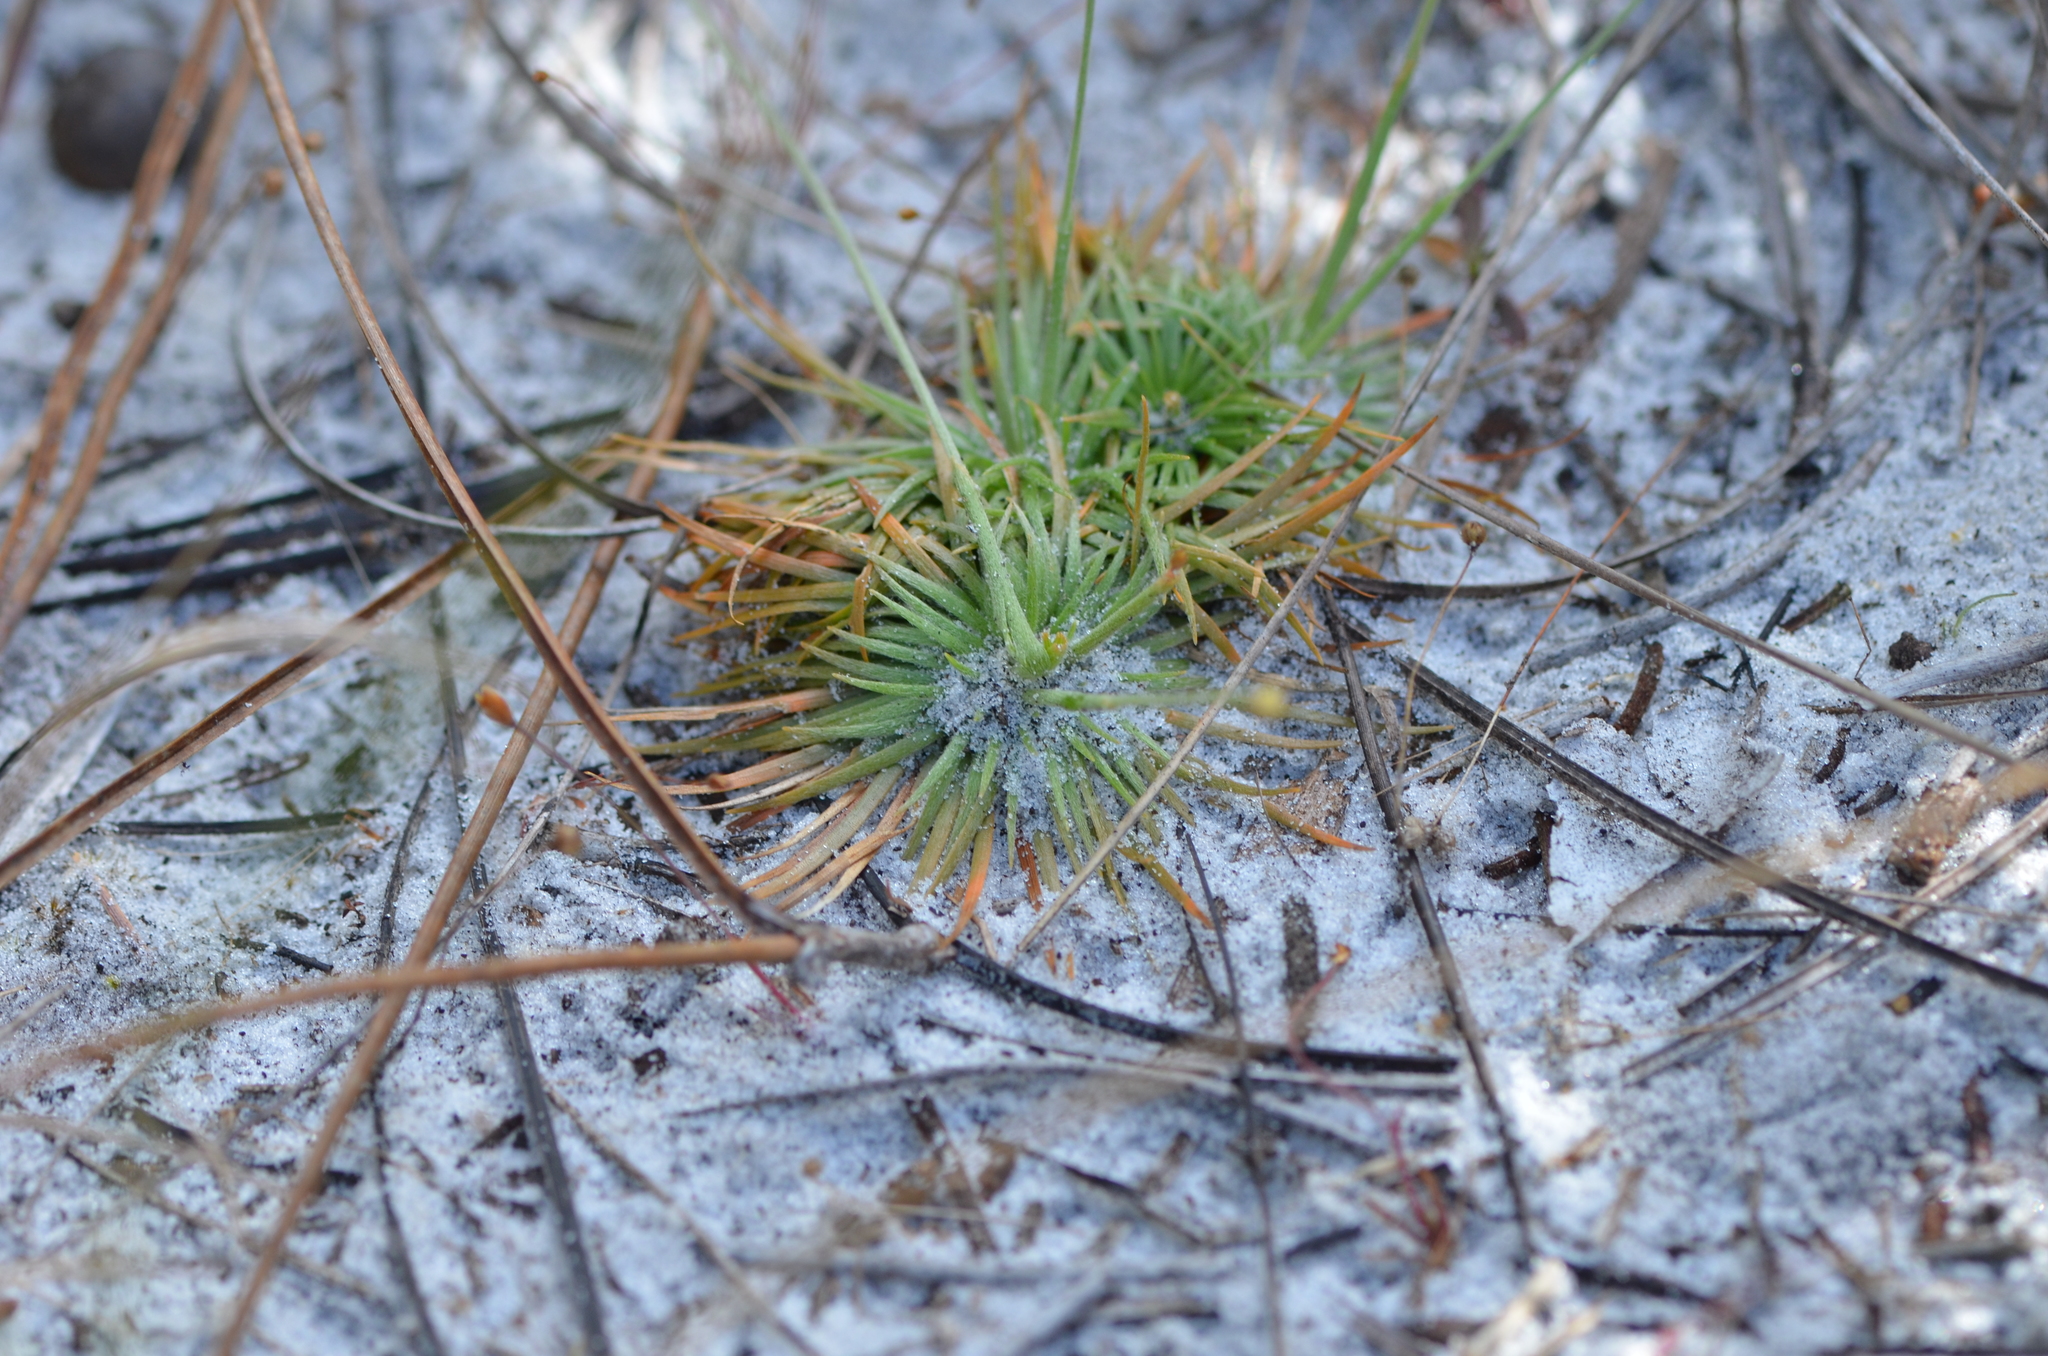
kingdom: Plantae
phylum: Tracheophyta
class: Liliopsida
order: Poales
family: Eriocaulaceae
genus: Syngonanthus
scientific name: Syngonanthus flavidulus
